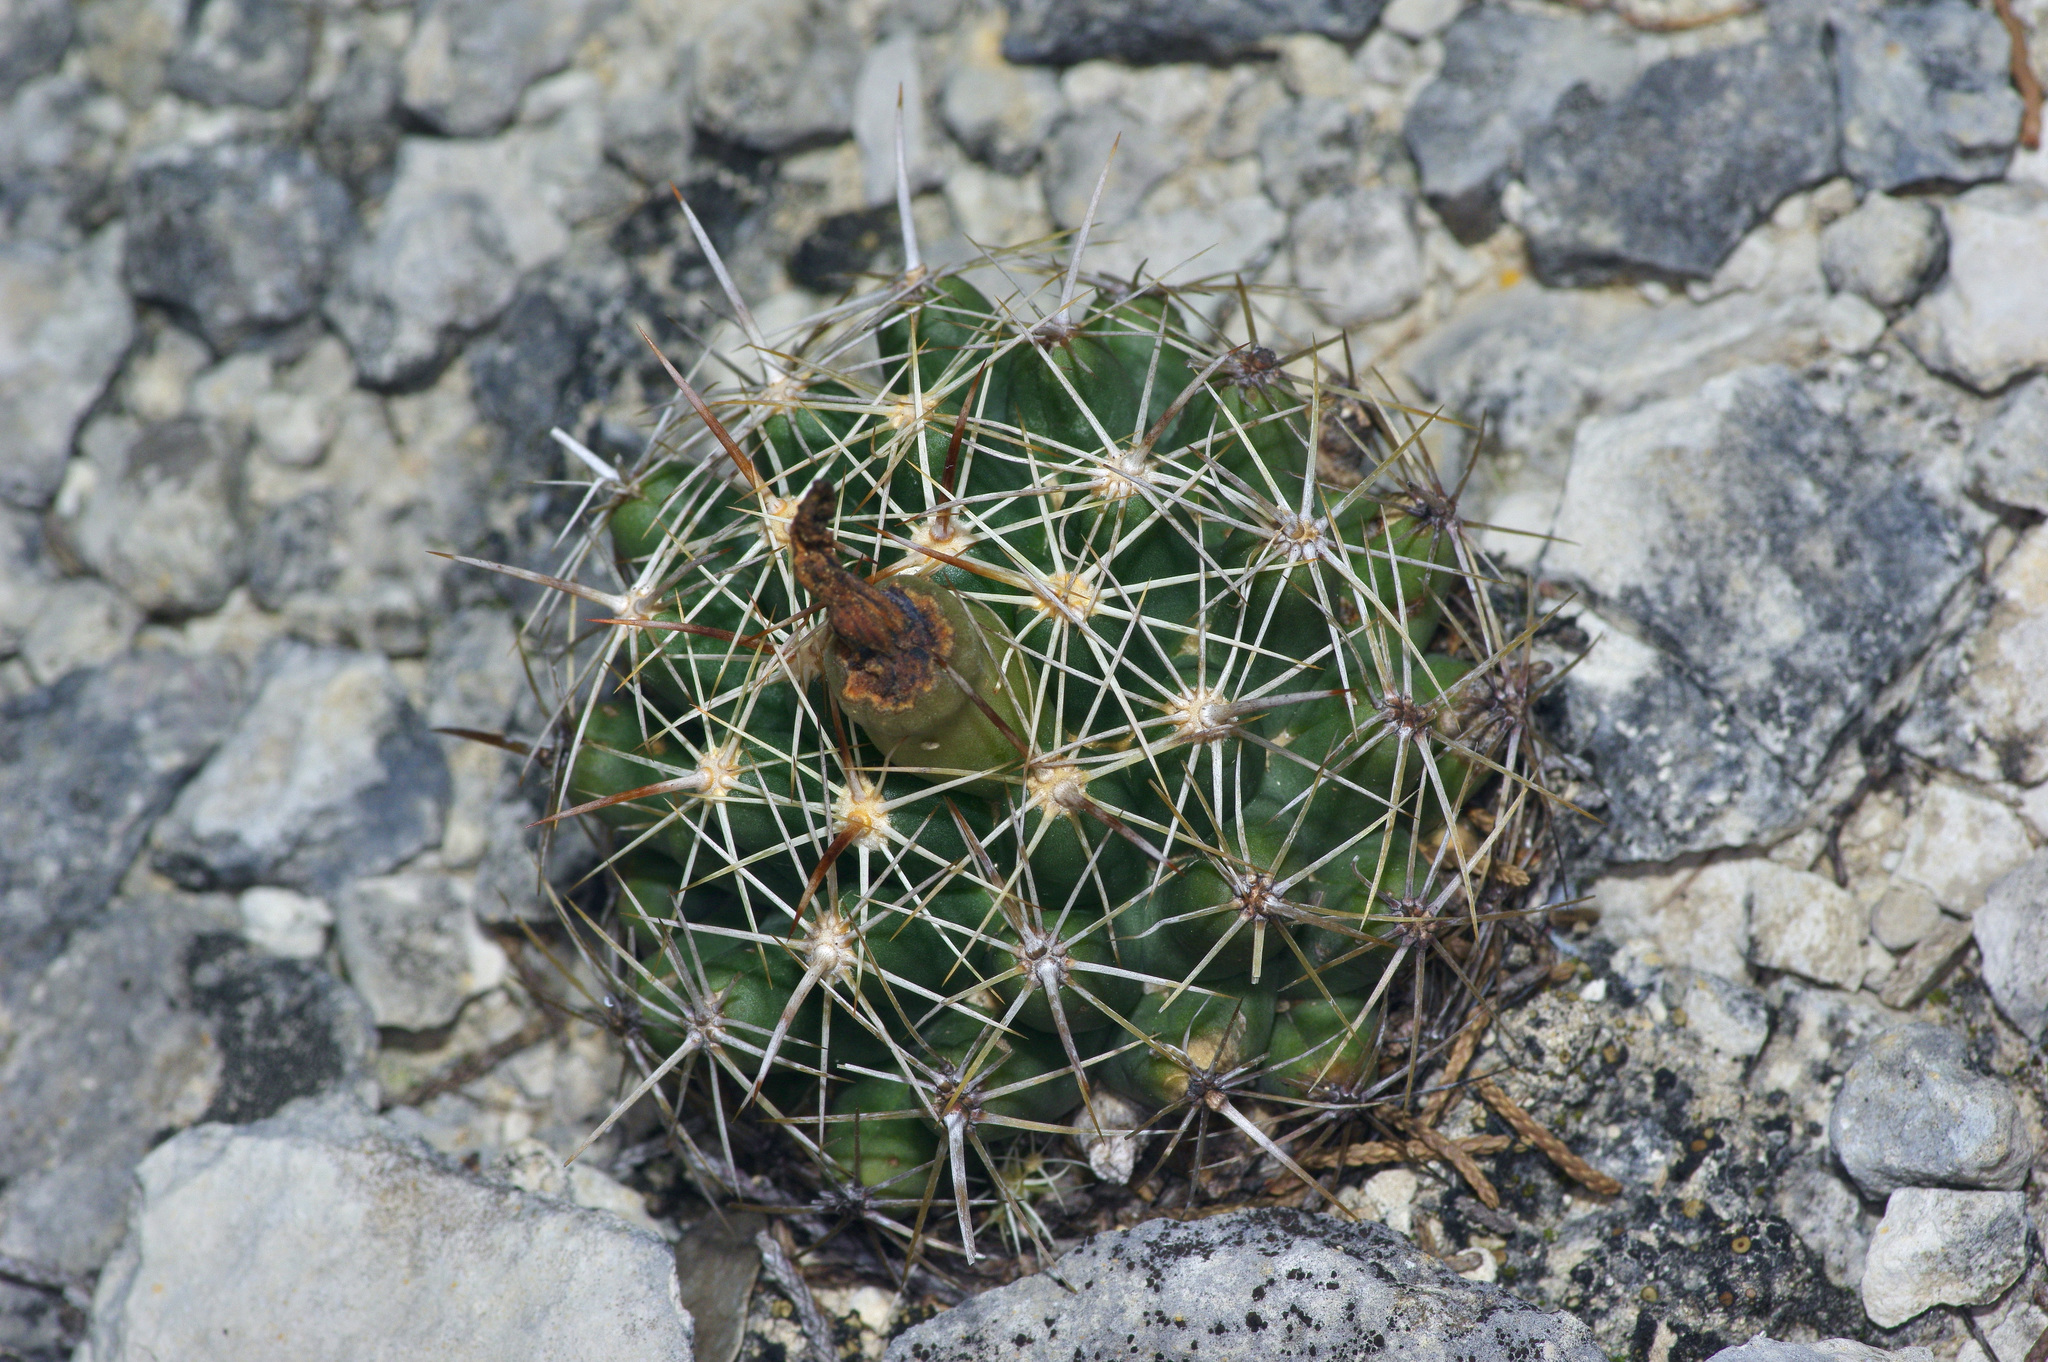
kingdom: Plantae
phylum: Tracheophyta
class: Magnoliopsida
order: Caryophyllales
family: Cactaceae
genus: Coryphantha
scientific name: Coryphantha sulcata
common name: Finger cactus
